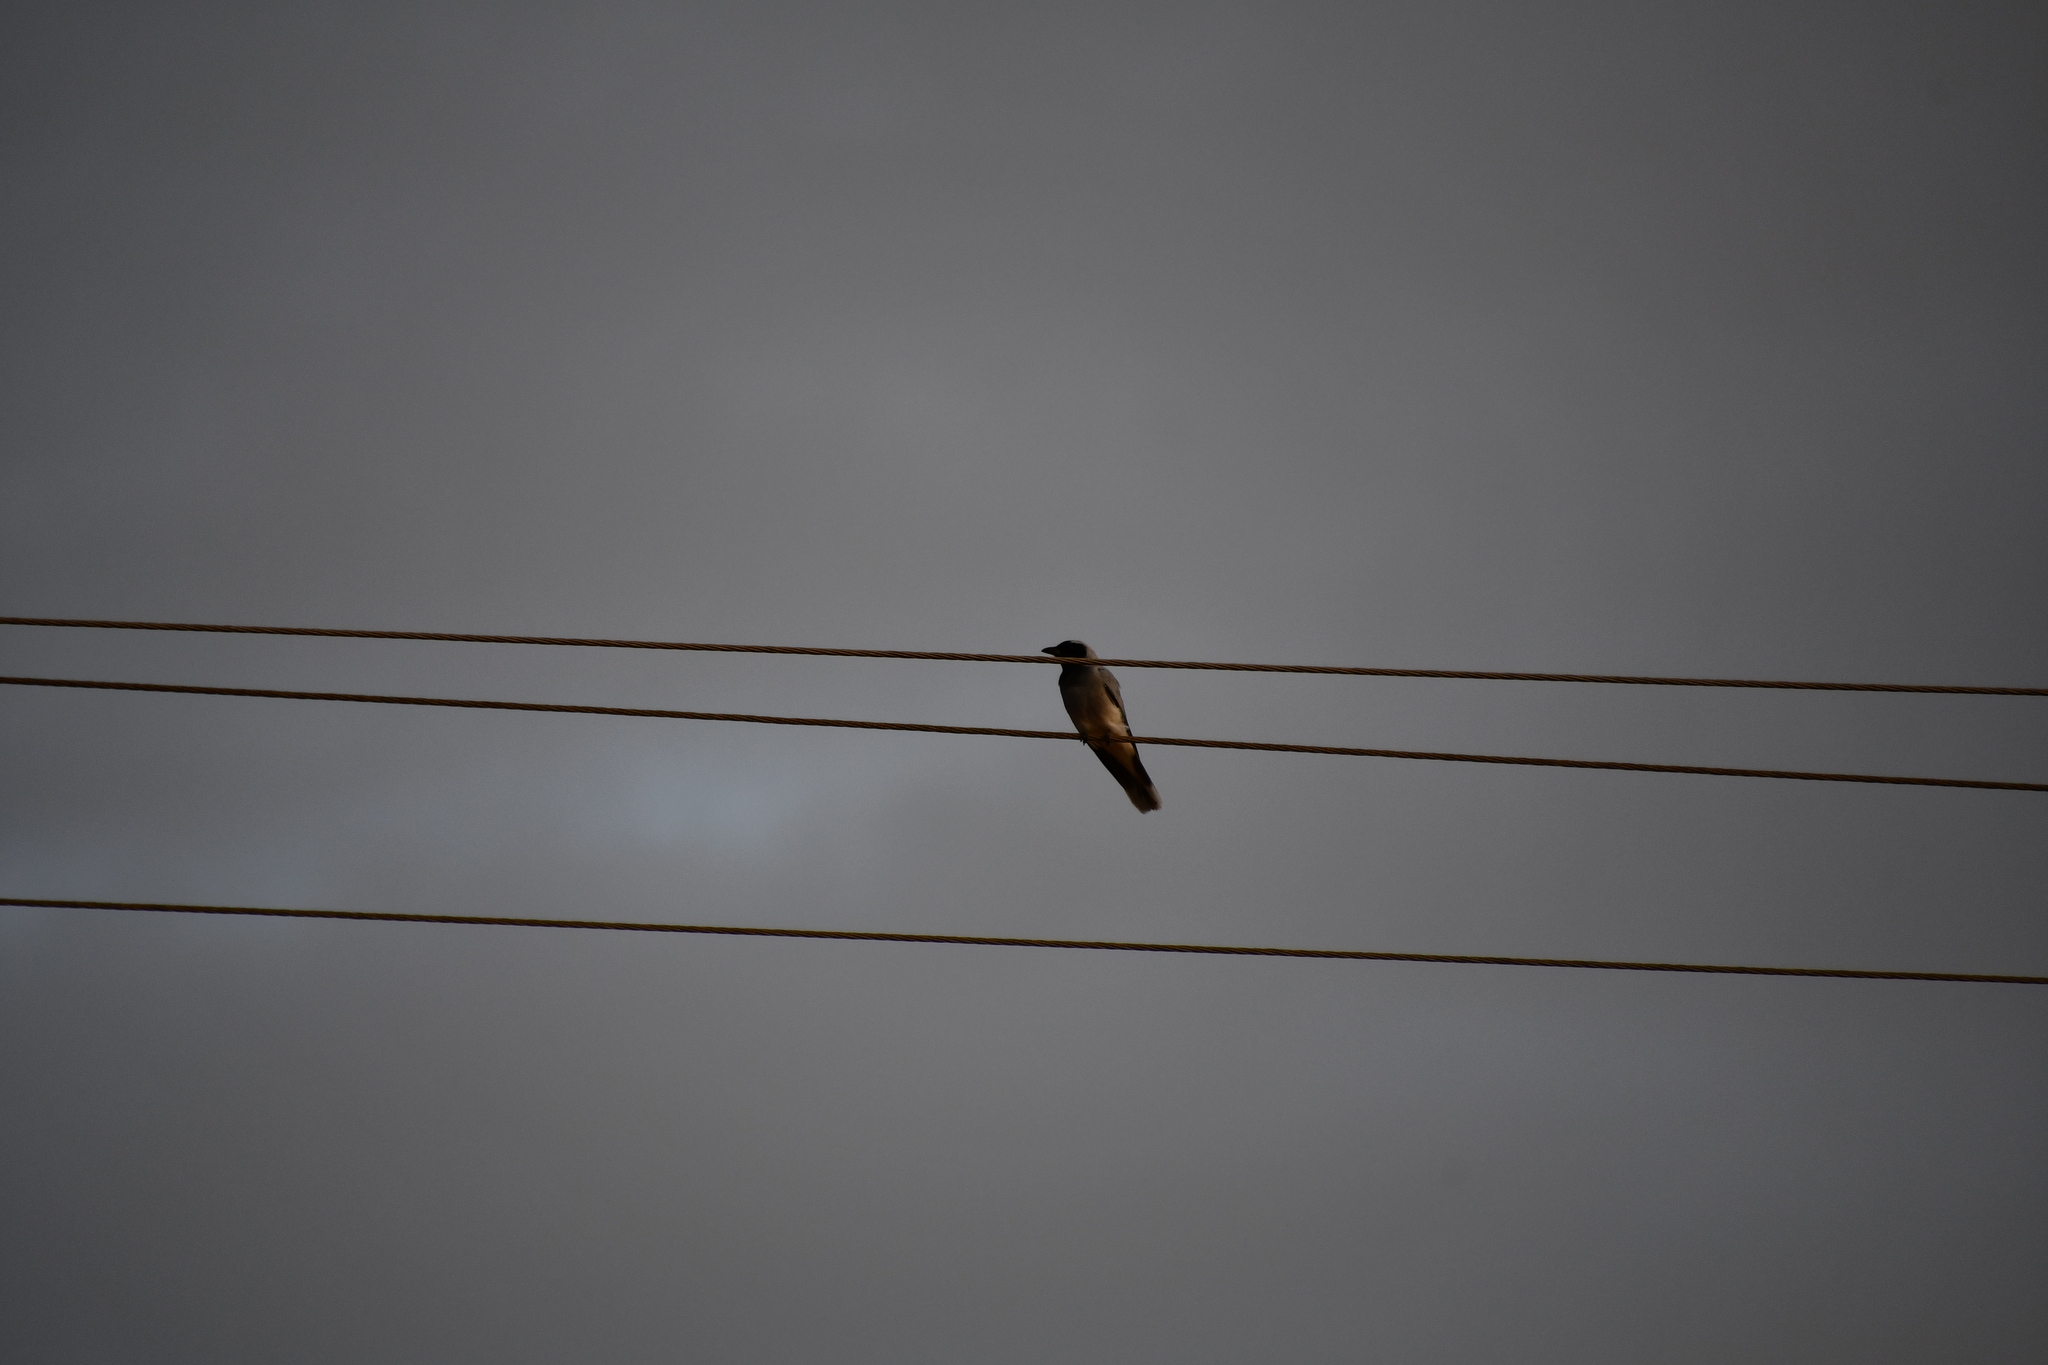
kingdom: Animalia
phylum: Chordata
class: Aves
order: Passeriformes
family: Campephagidae
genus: Coracina
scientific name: Coracina novaehollandiae
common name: Black-faced cuckooshrike
